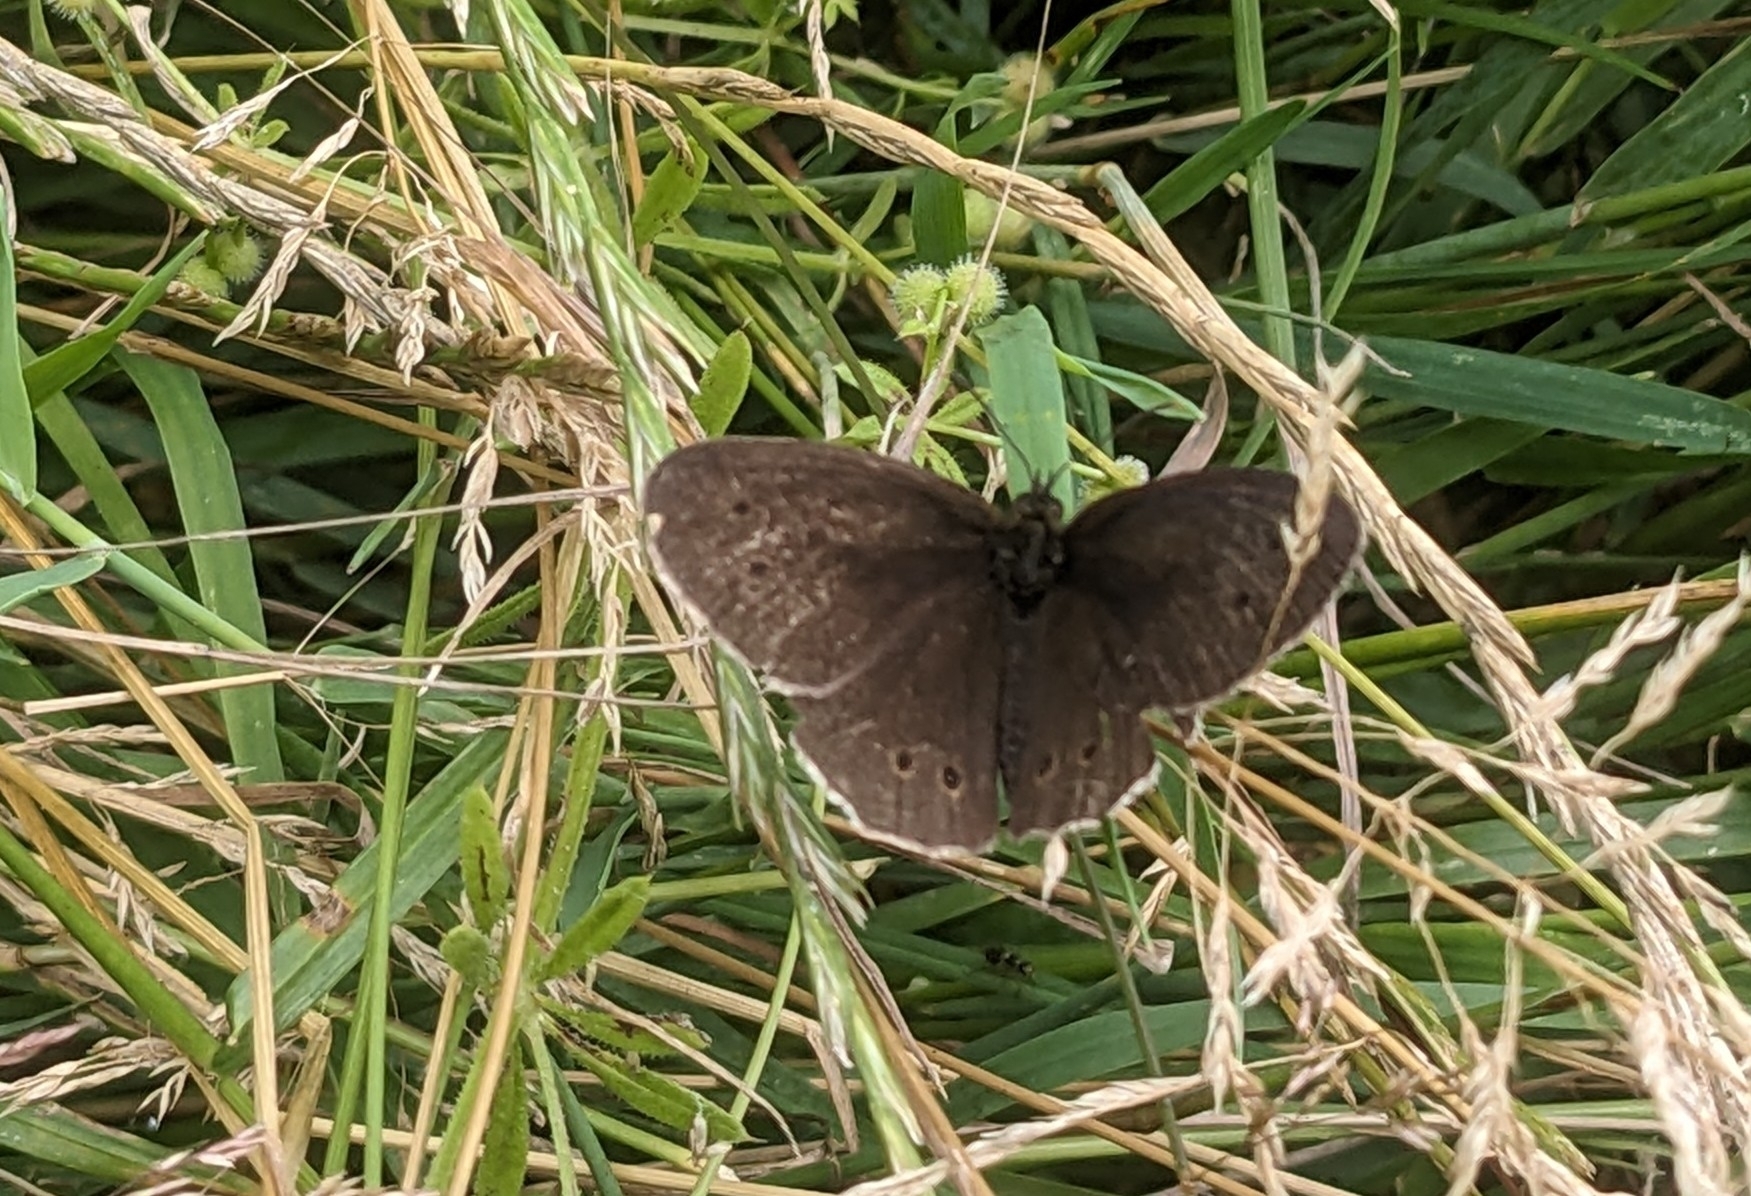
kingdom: Animalia
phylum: Arthropoda
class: Insecta
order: Lepidoptera
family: Nymphalidae
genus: Aphantopus
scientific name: Aphantopus hyperantus
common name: Ringlet
